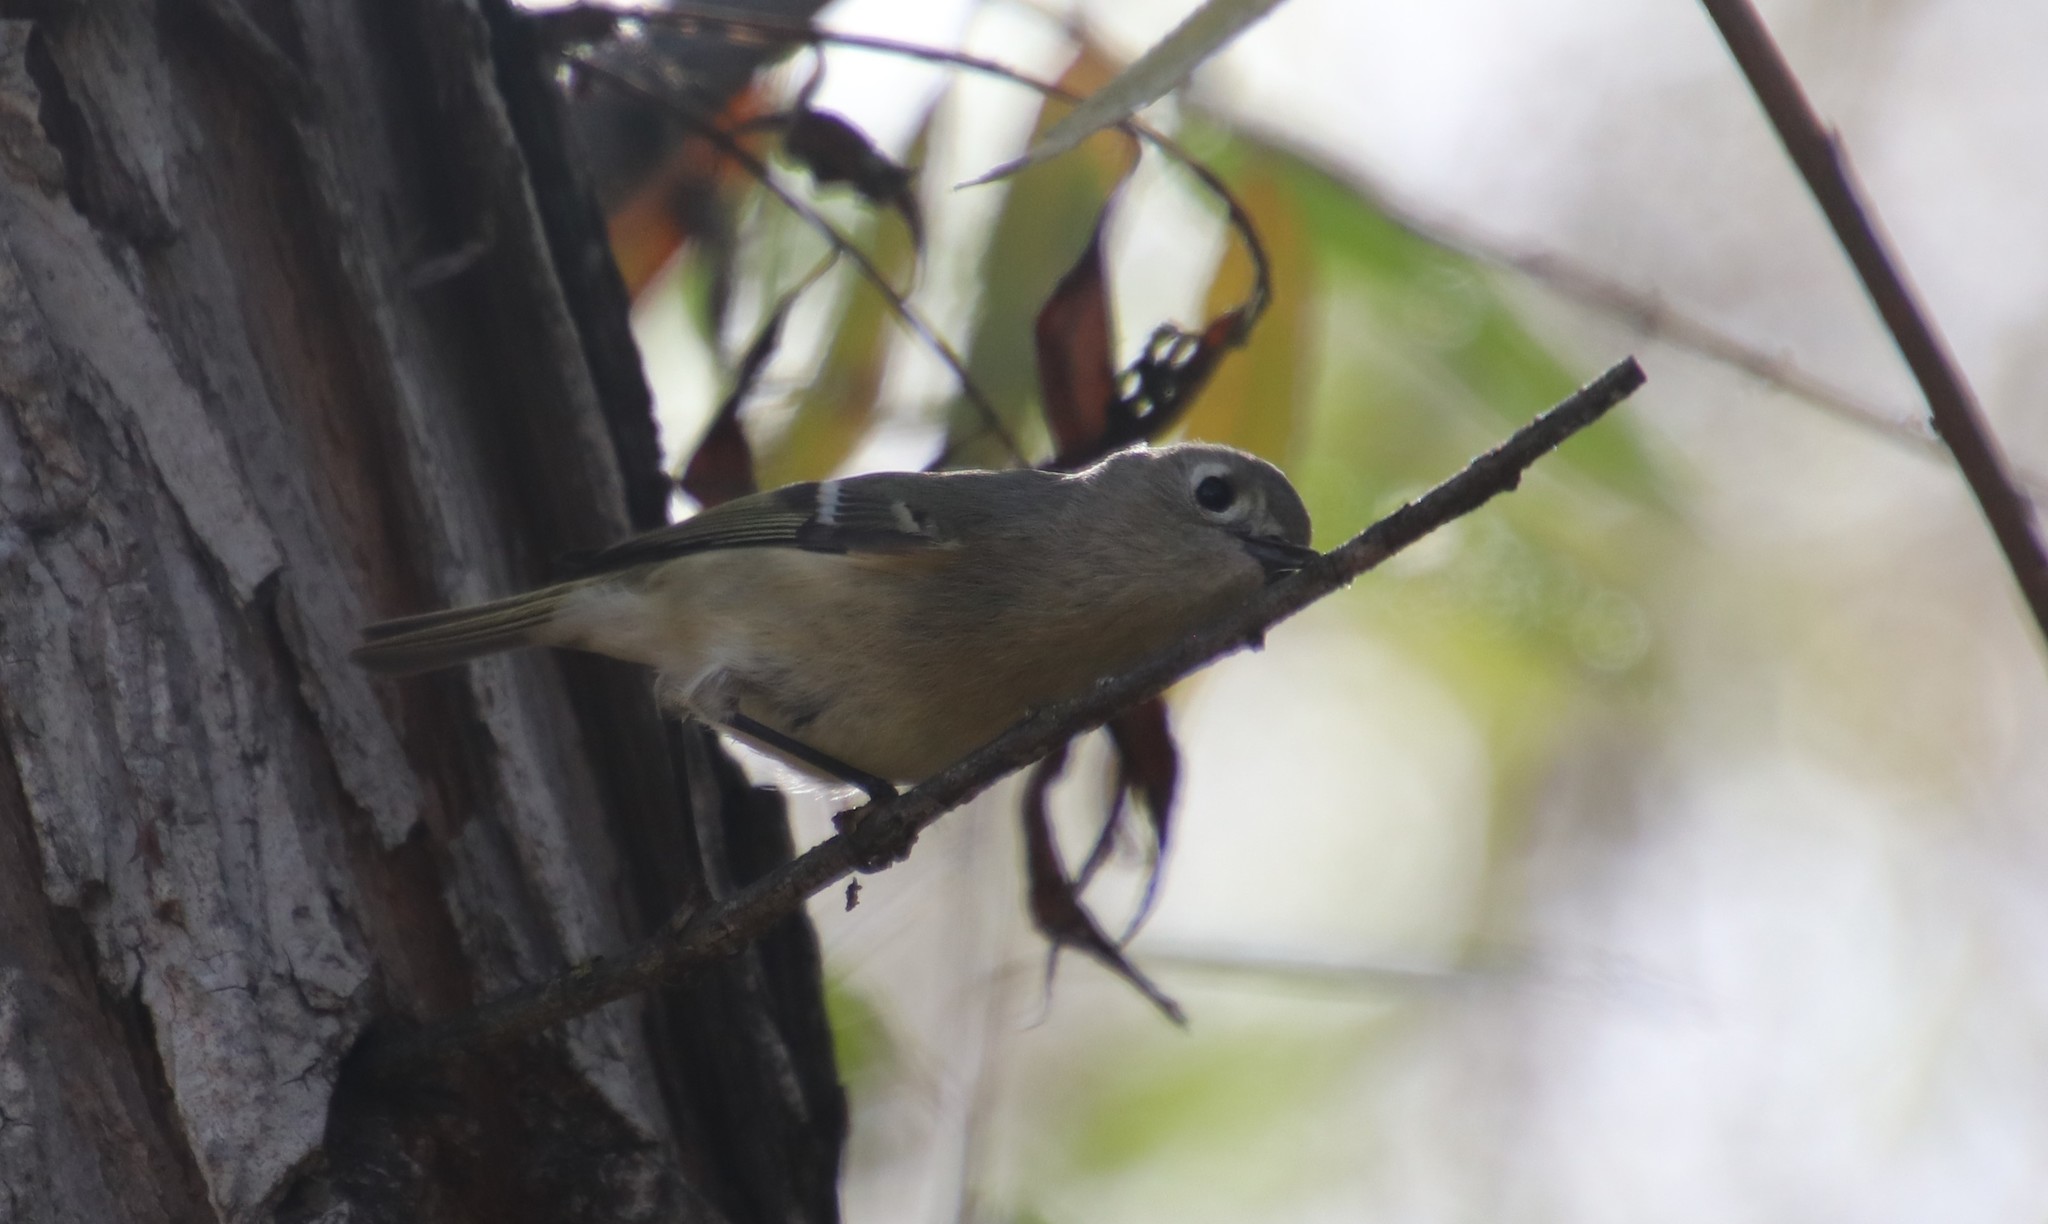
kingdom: Animalia
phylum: Chordata
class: Aves
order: Passeriformes
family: Regulidae
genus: Regulus
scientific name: Regulus calendula
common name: Ruby-crowned kinglet
